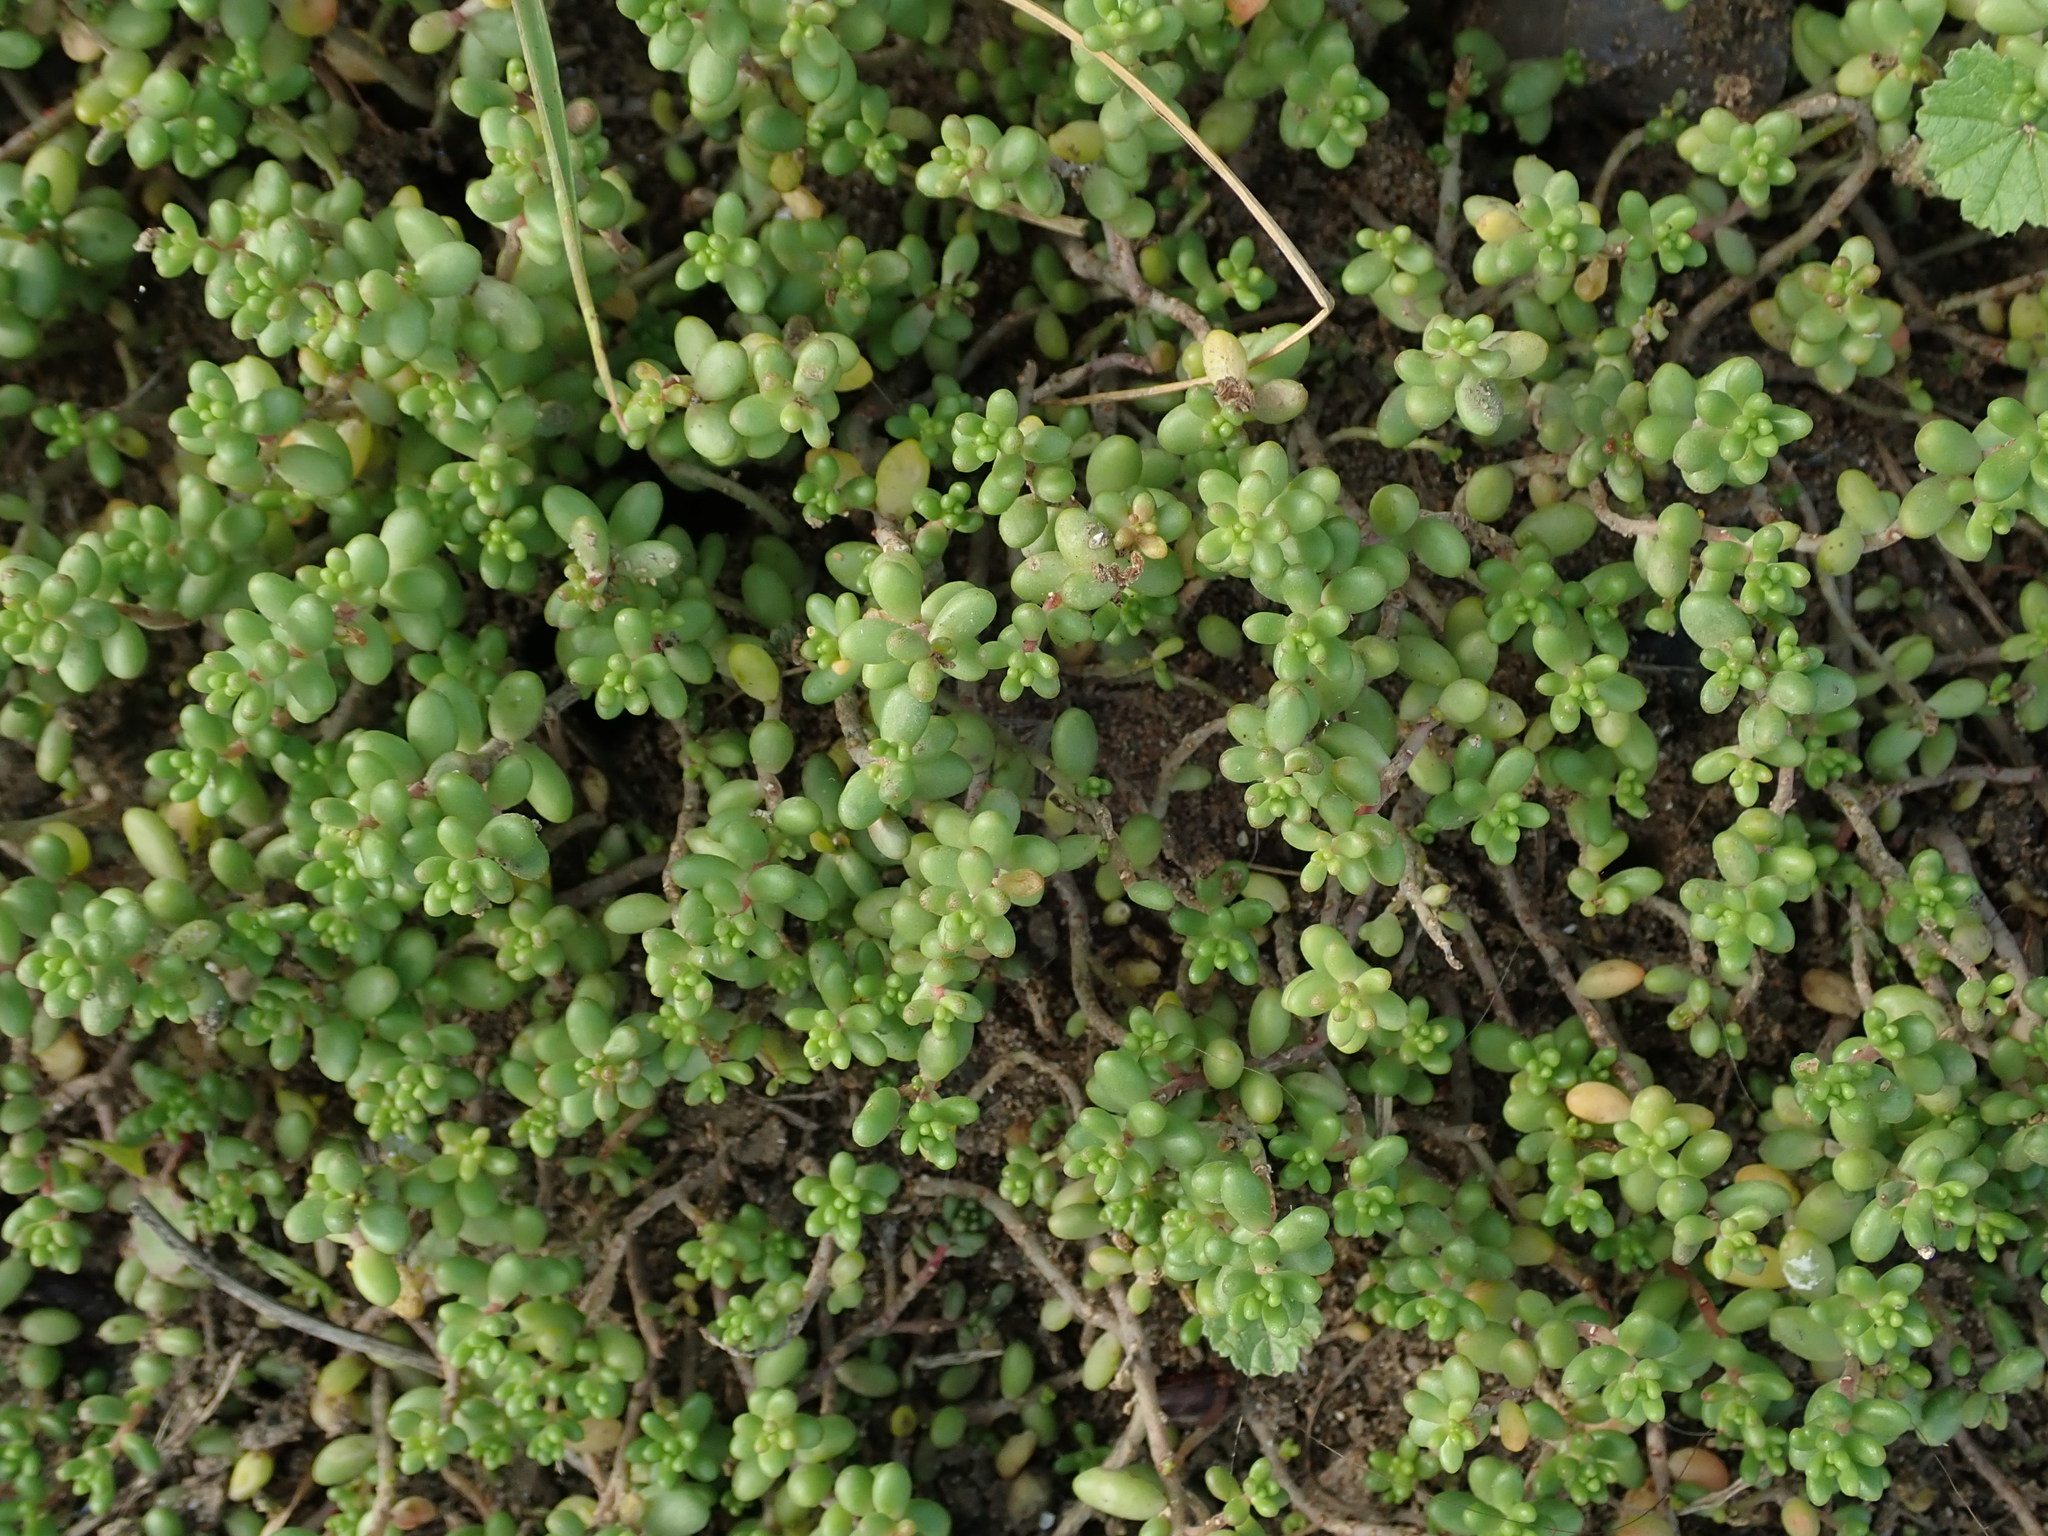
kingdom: Plantae
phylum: Tracheophyta
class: Magnoliopsida
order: Saxifragales
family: Crassulaceae
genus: Sedum
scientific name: Sedum album
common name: White stonecrop
